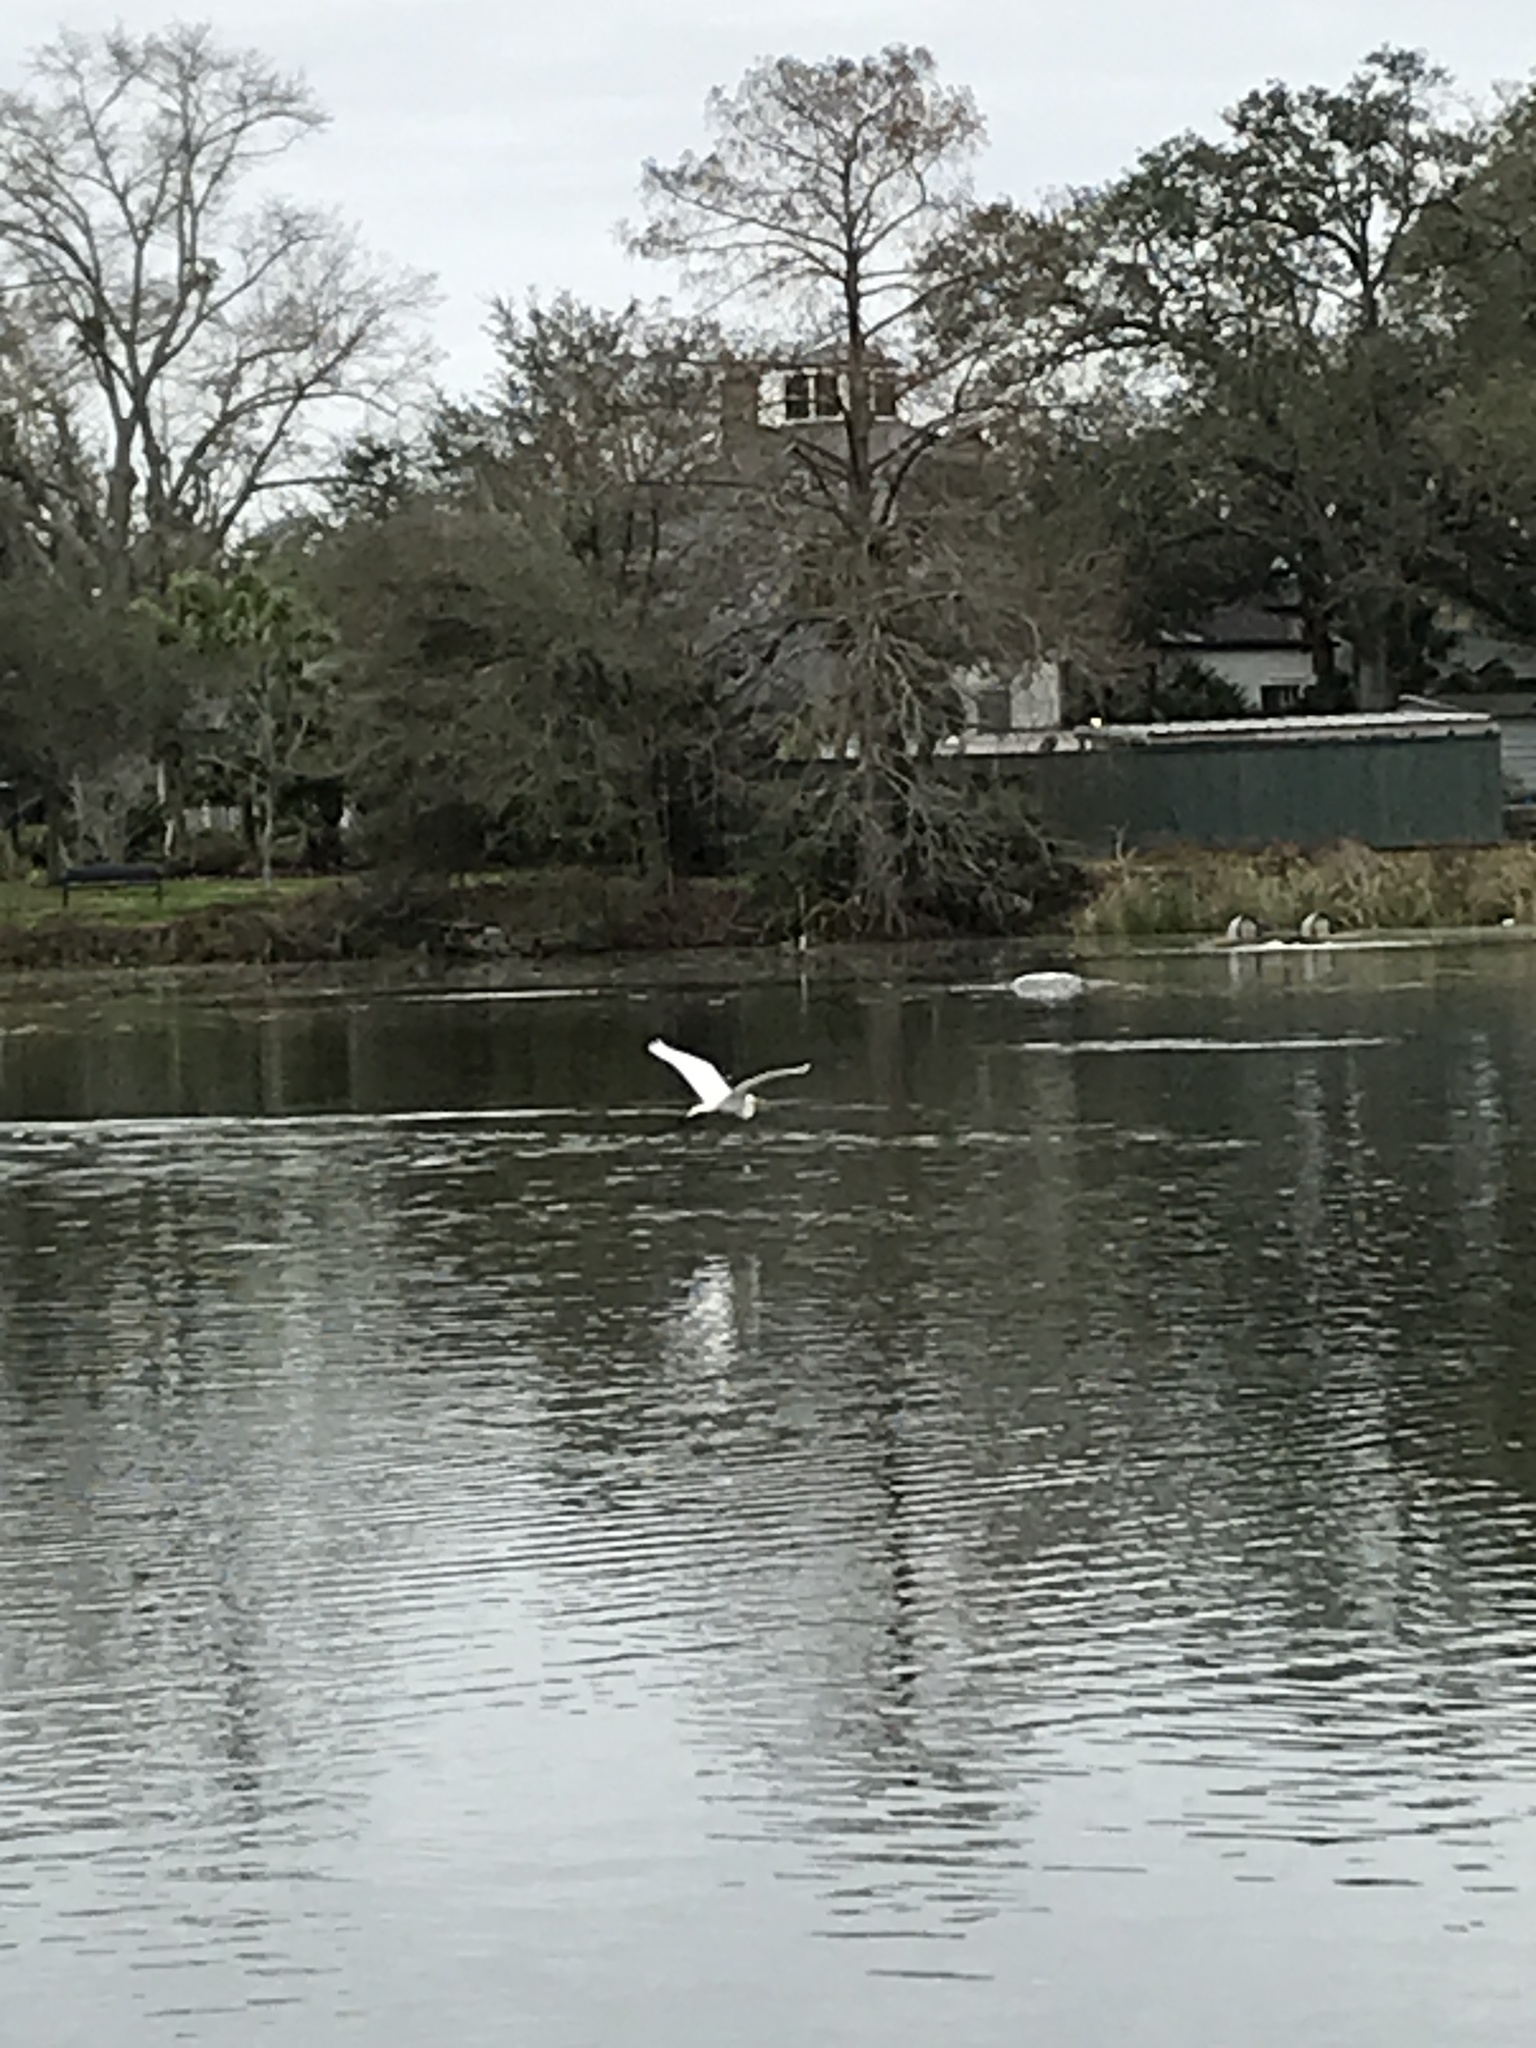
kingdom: Animalia
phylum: Chordata
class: Aves
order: Pelecaniformes
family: Ardeidae
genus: Ardea
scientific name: Ardea alba
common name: Great egret
